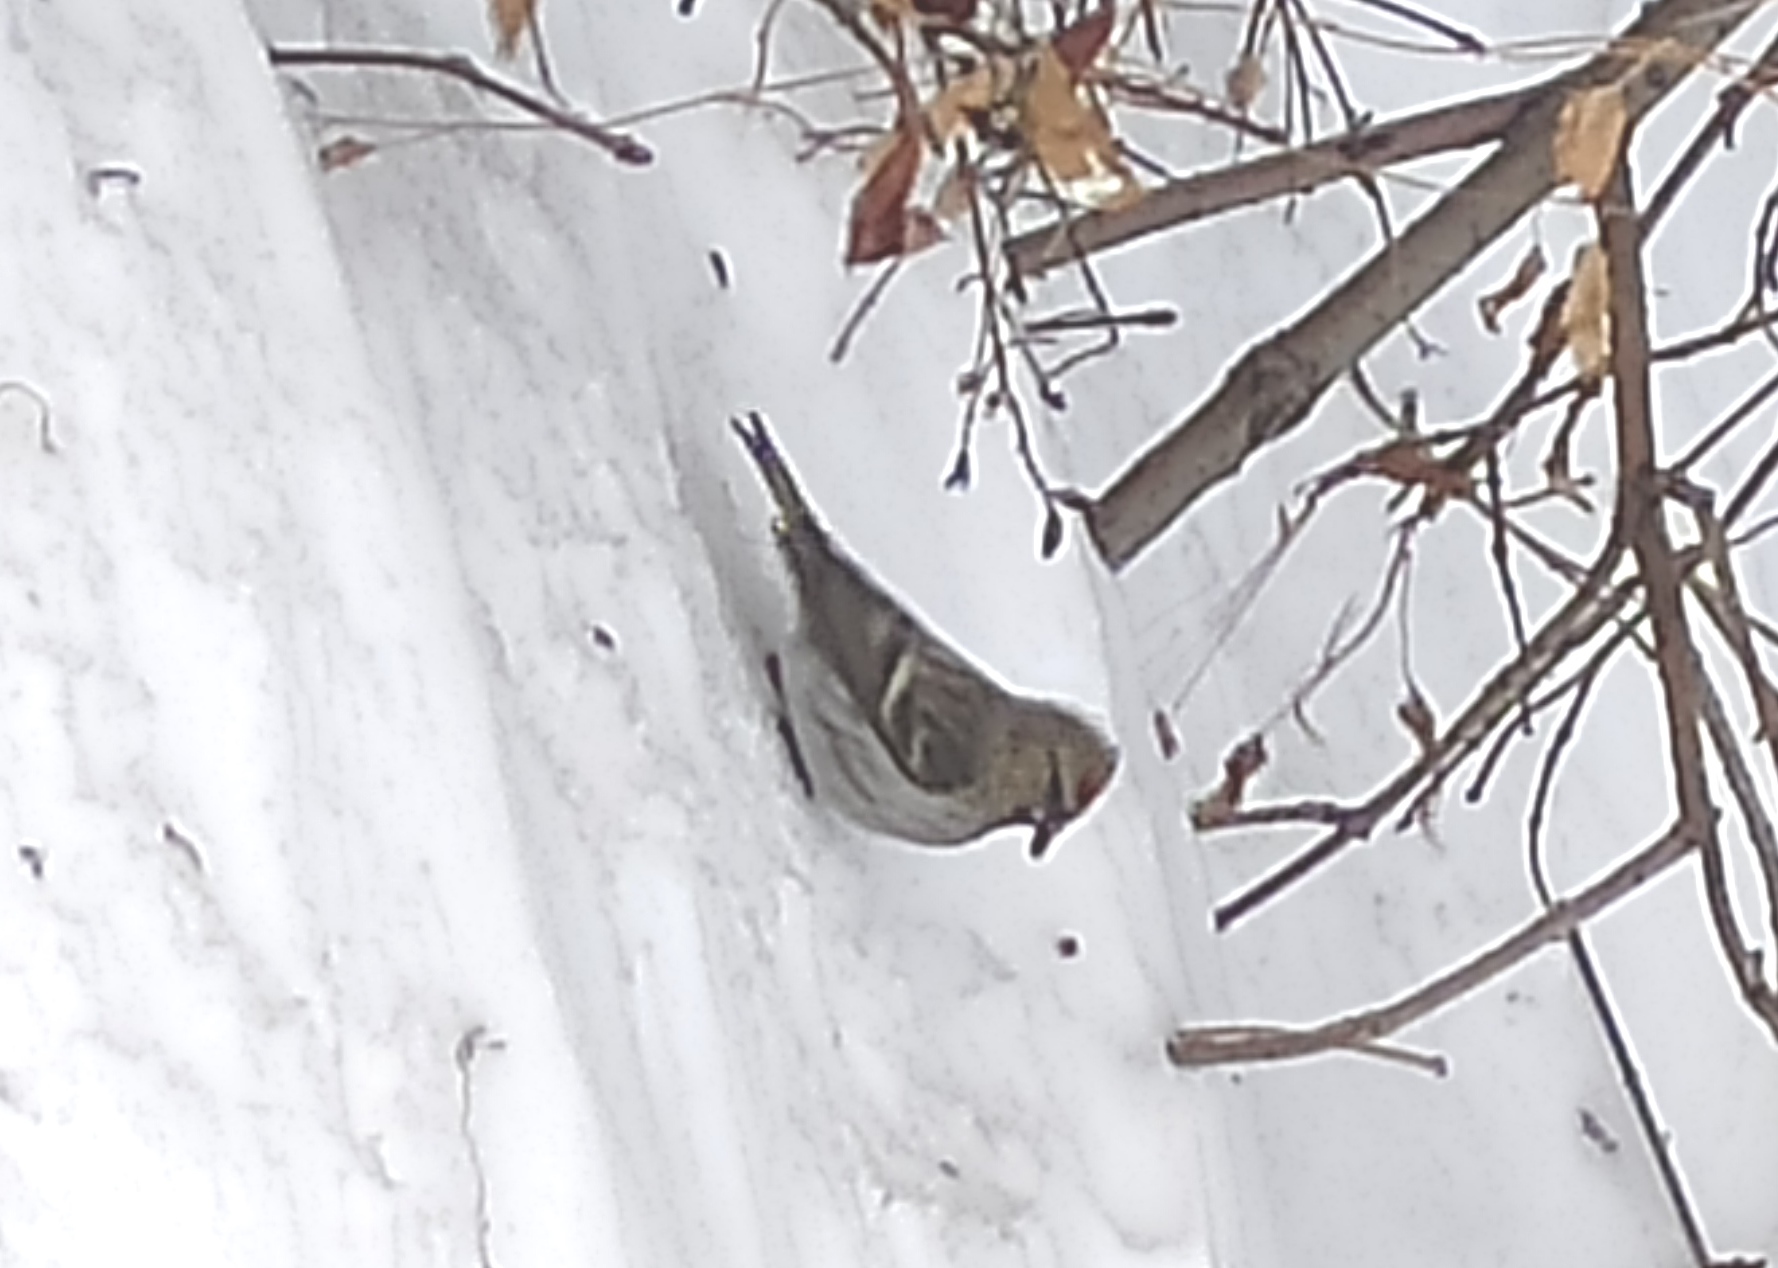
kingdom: Animalia
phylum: Chordata
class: Aves
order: Passeriformes
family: Fringillidae
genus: Acanthis
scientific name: Acanthis flammea
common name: Common redpoll
